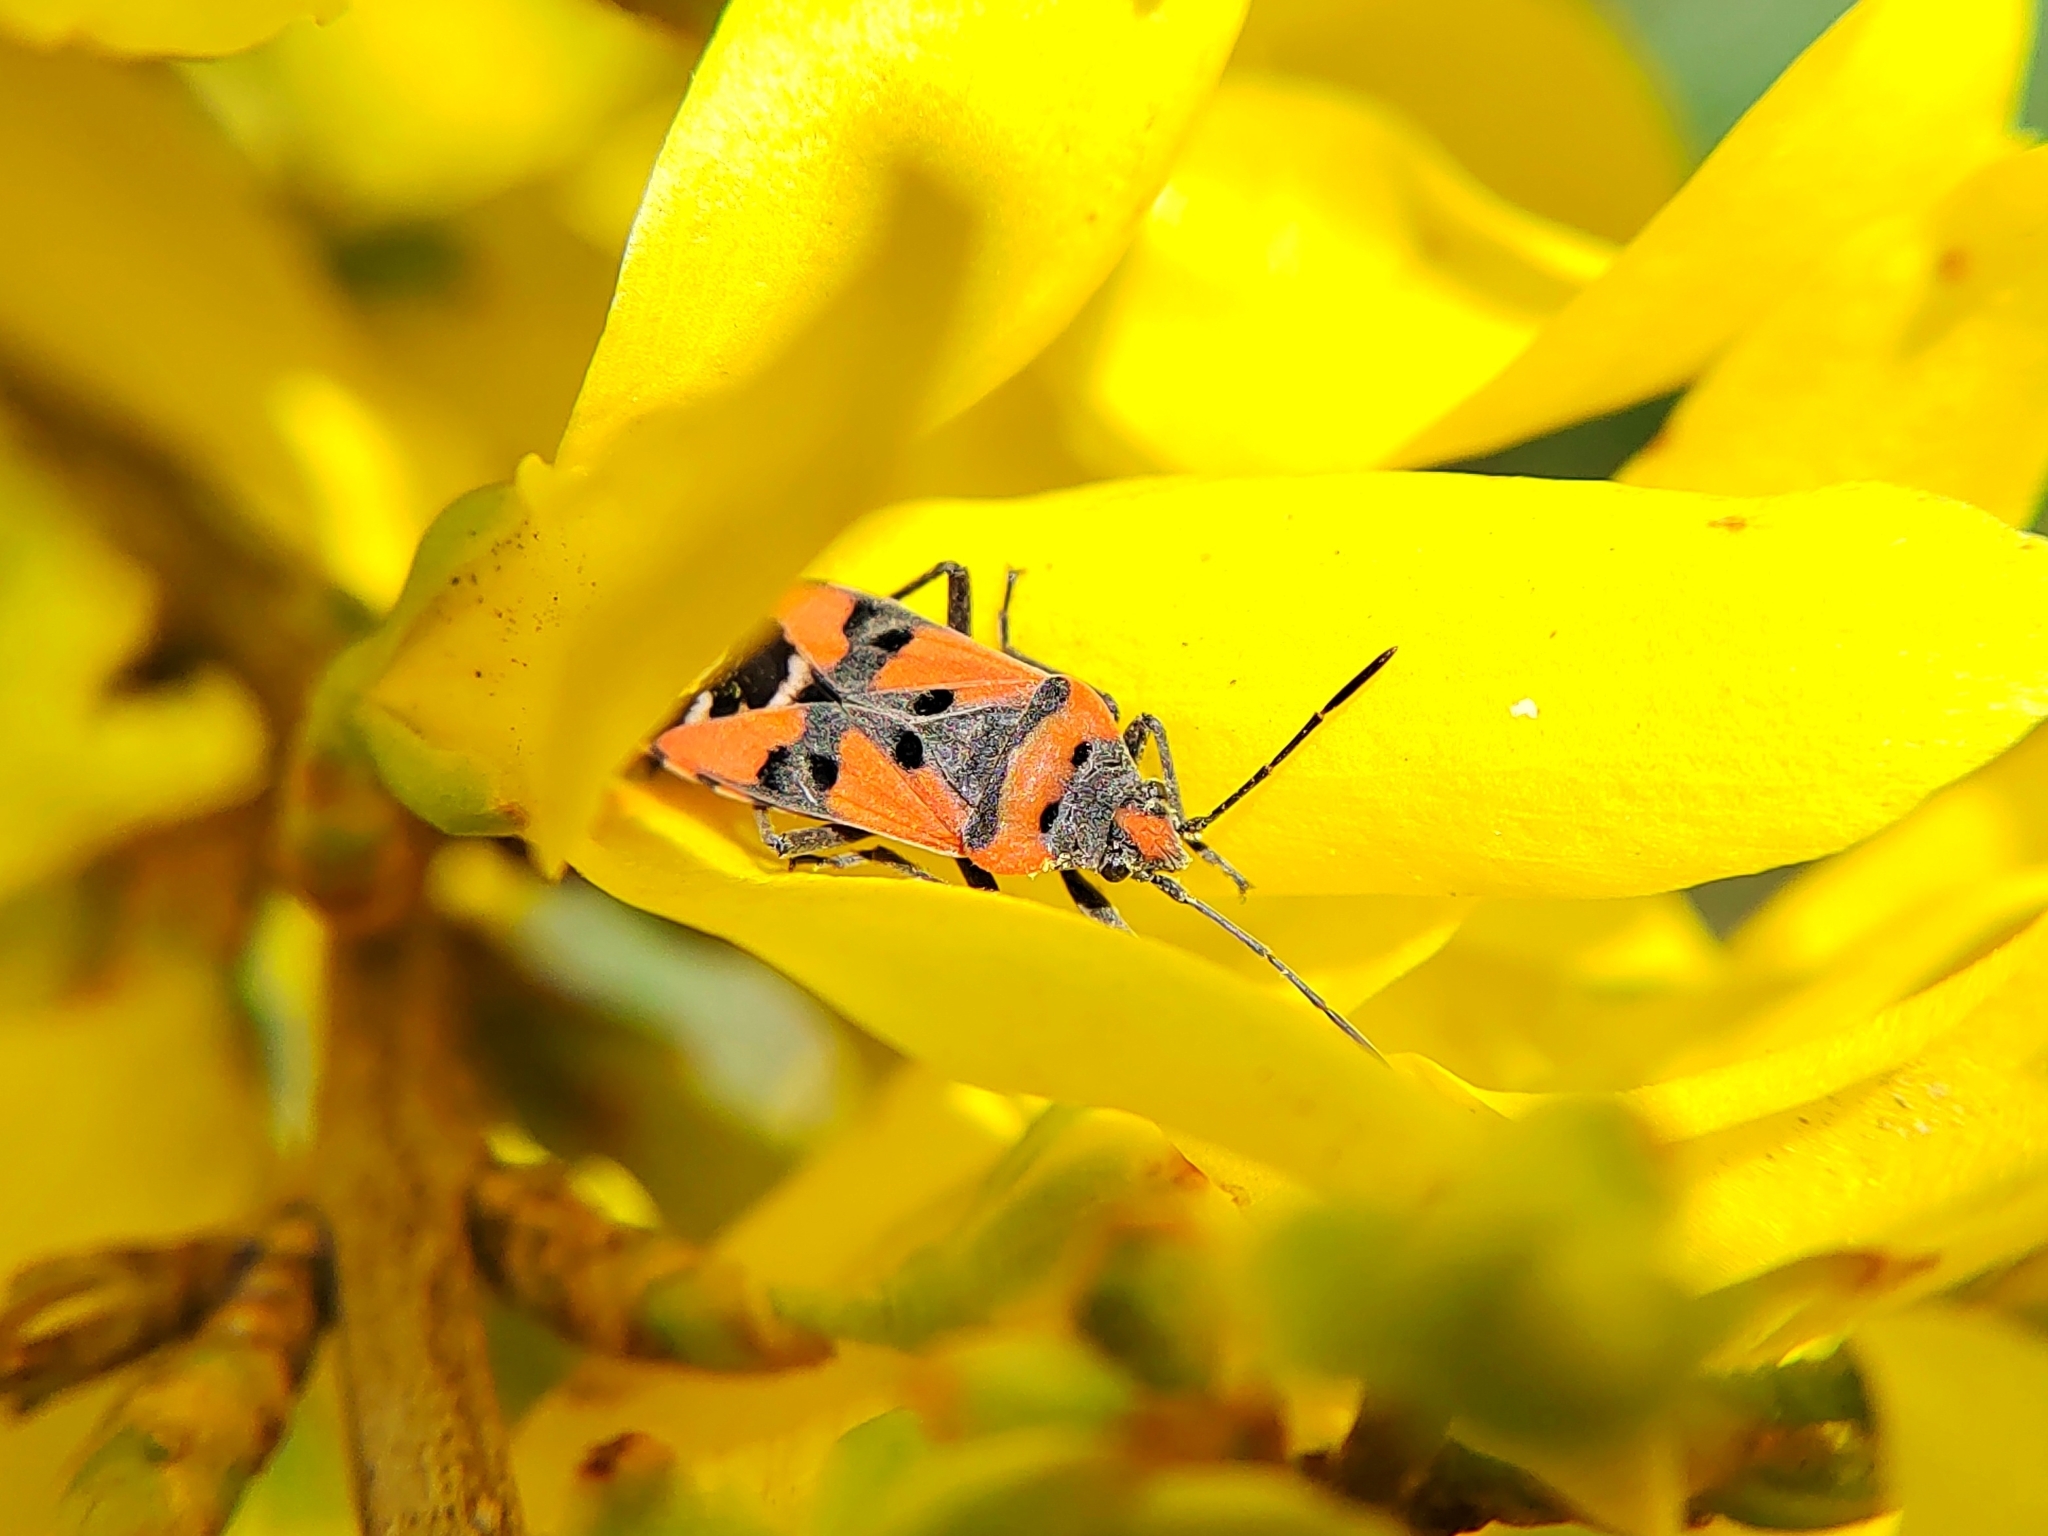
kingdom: Animalia
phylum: Arthropoda
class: Insecta
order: Hemiptera
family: Lygaeidae
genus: Lygaeus
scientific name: Lygaeus
